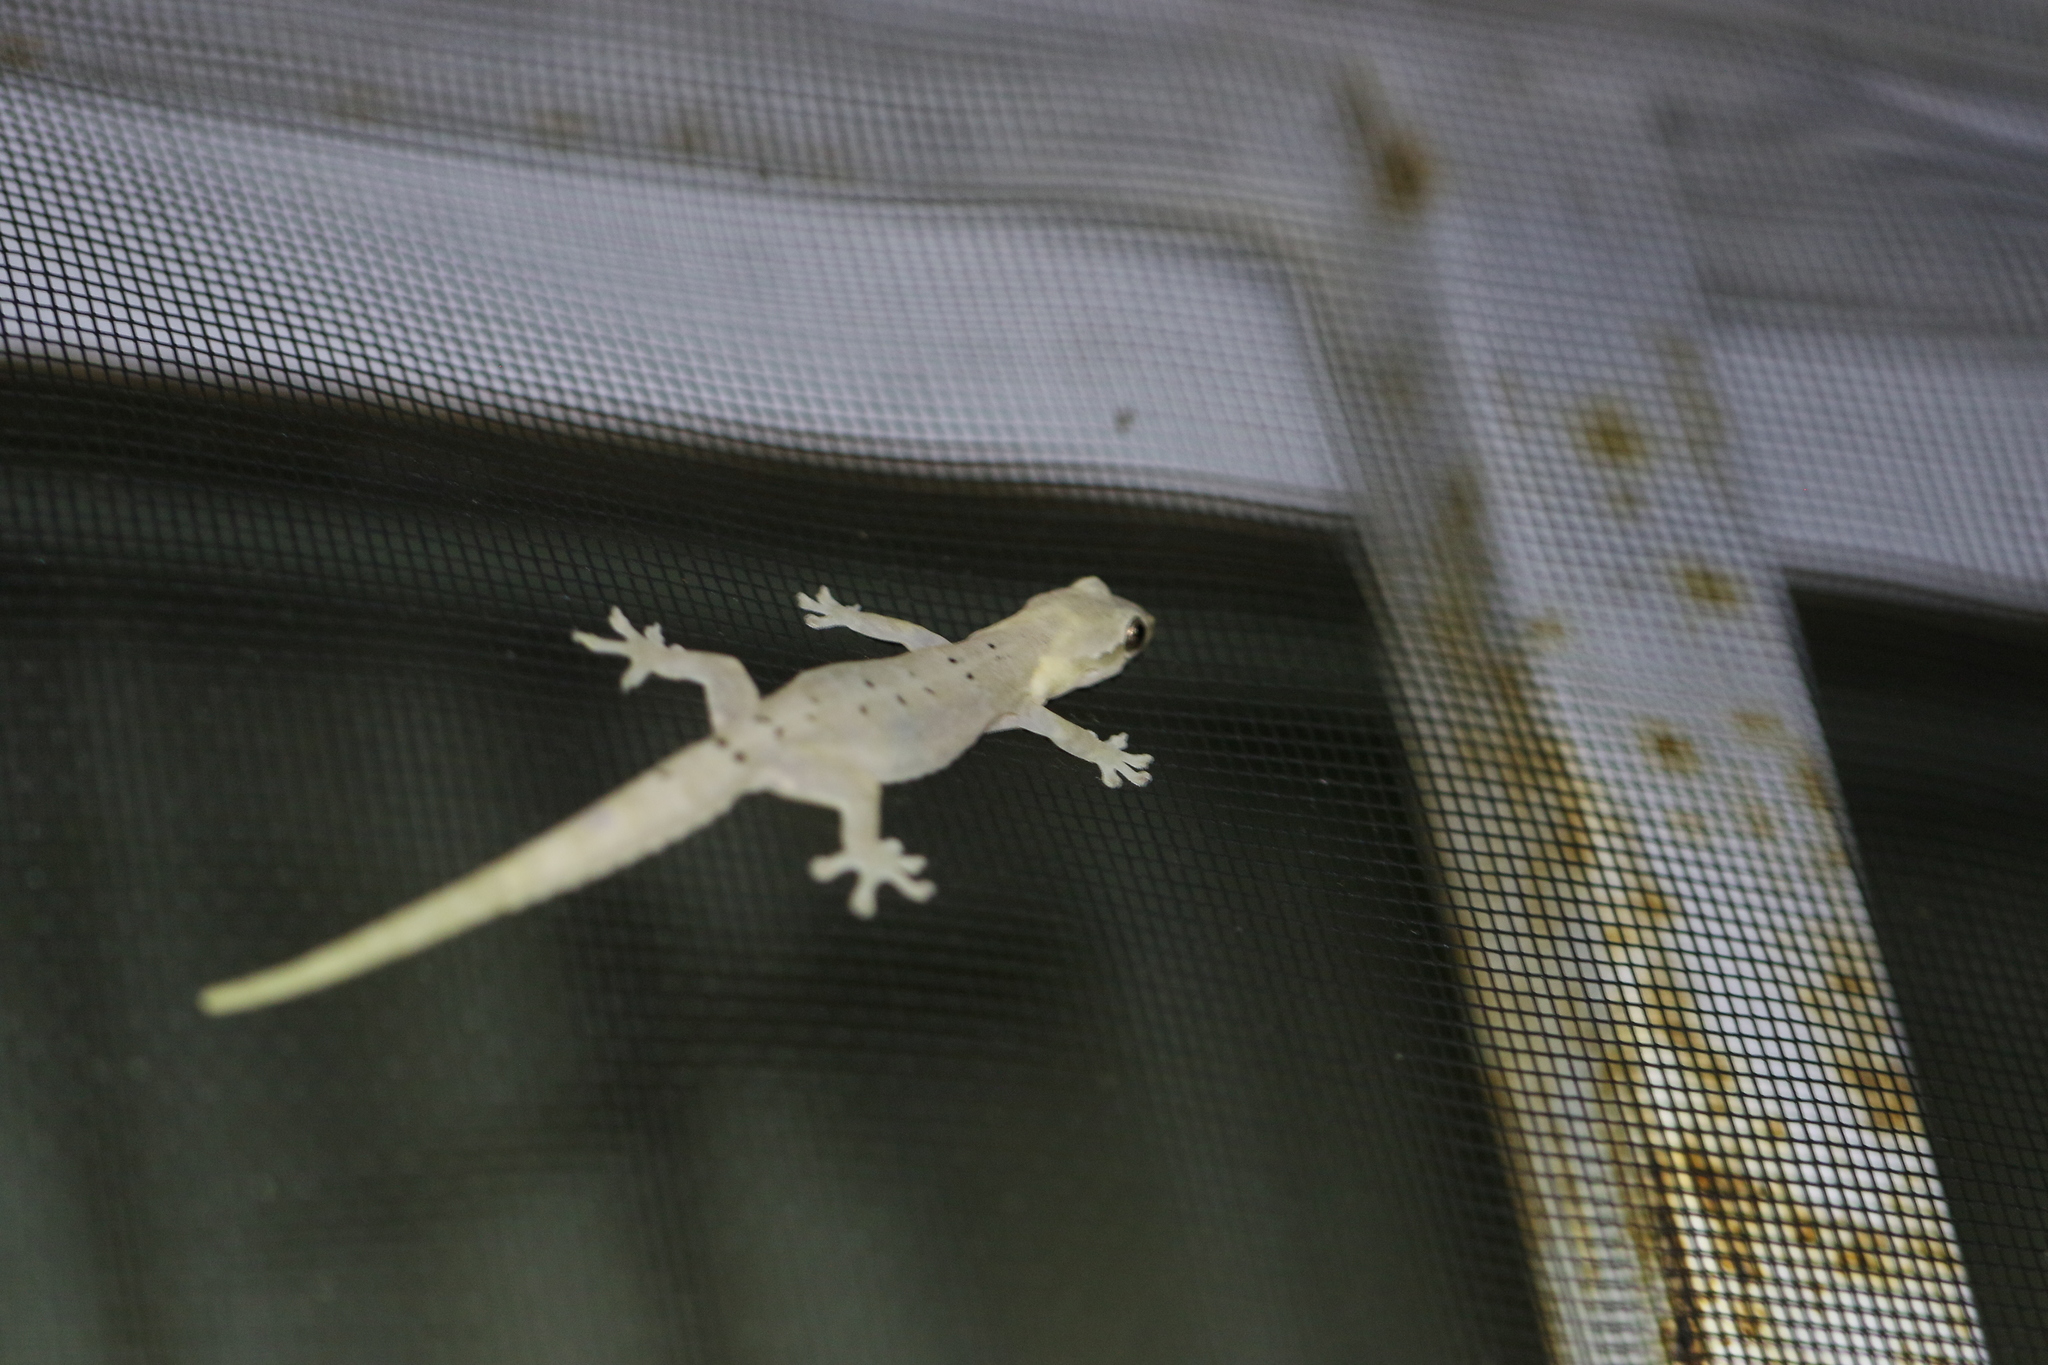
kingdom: Animalia
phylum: Chordata
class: Squamata
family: Gekkonidae
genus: Lepidodactylus
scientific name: Lepidodactylus lugubris
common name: Mourning gecko
